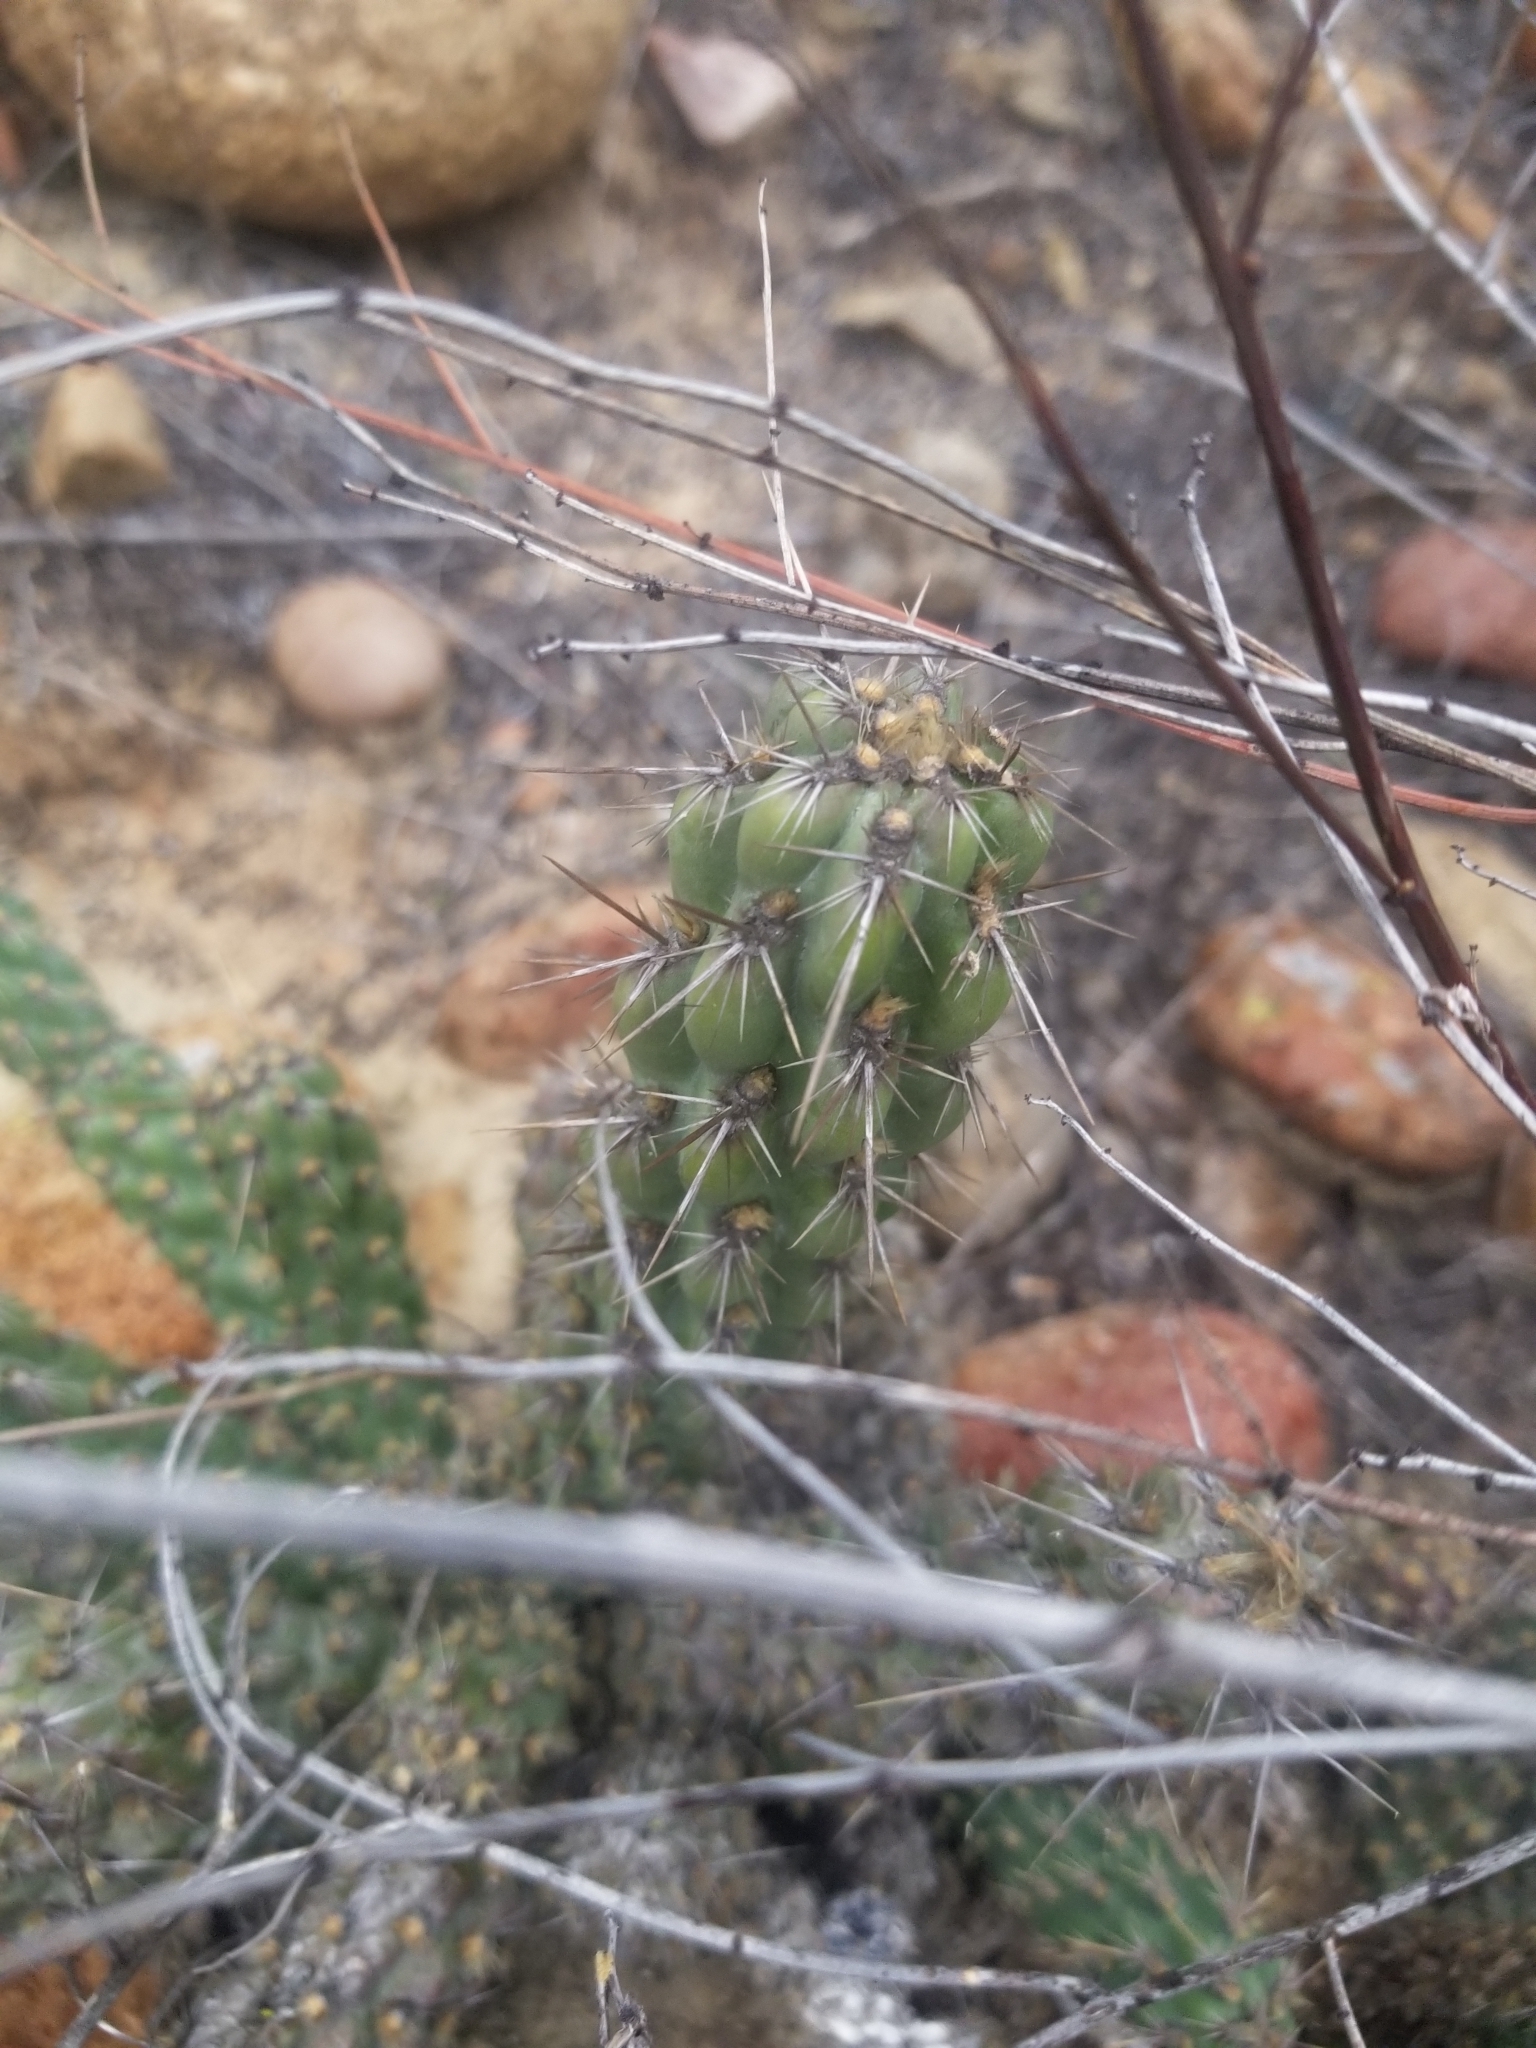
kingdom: Plantae
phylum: Tracheophyta
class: Magnoliopsida
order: Caryophyllales
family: Cactaceae
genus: Cylindropuntia
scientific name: Cylindropuntia californica
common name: Snake cholla
